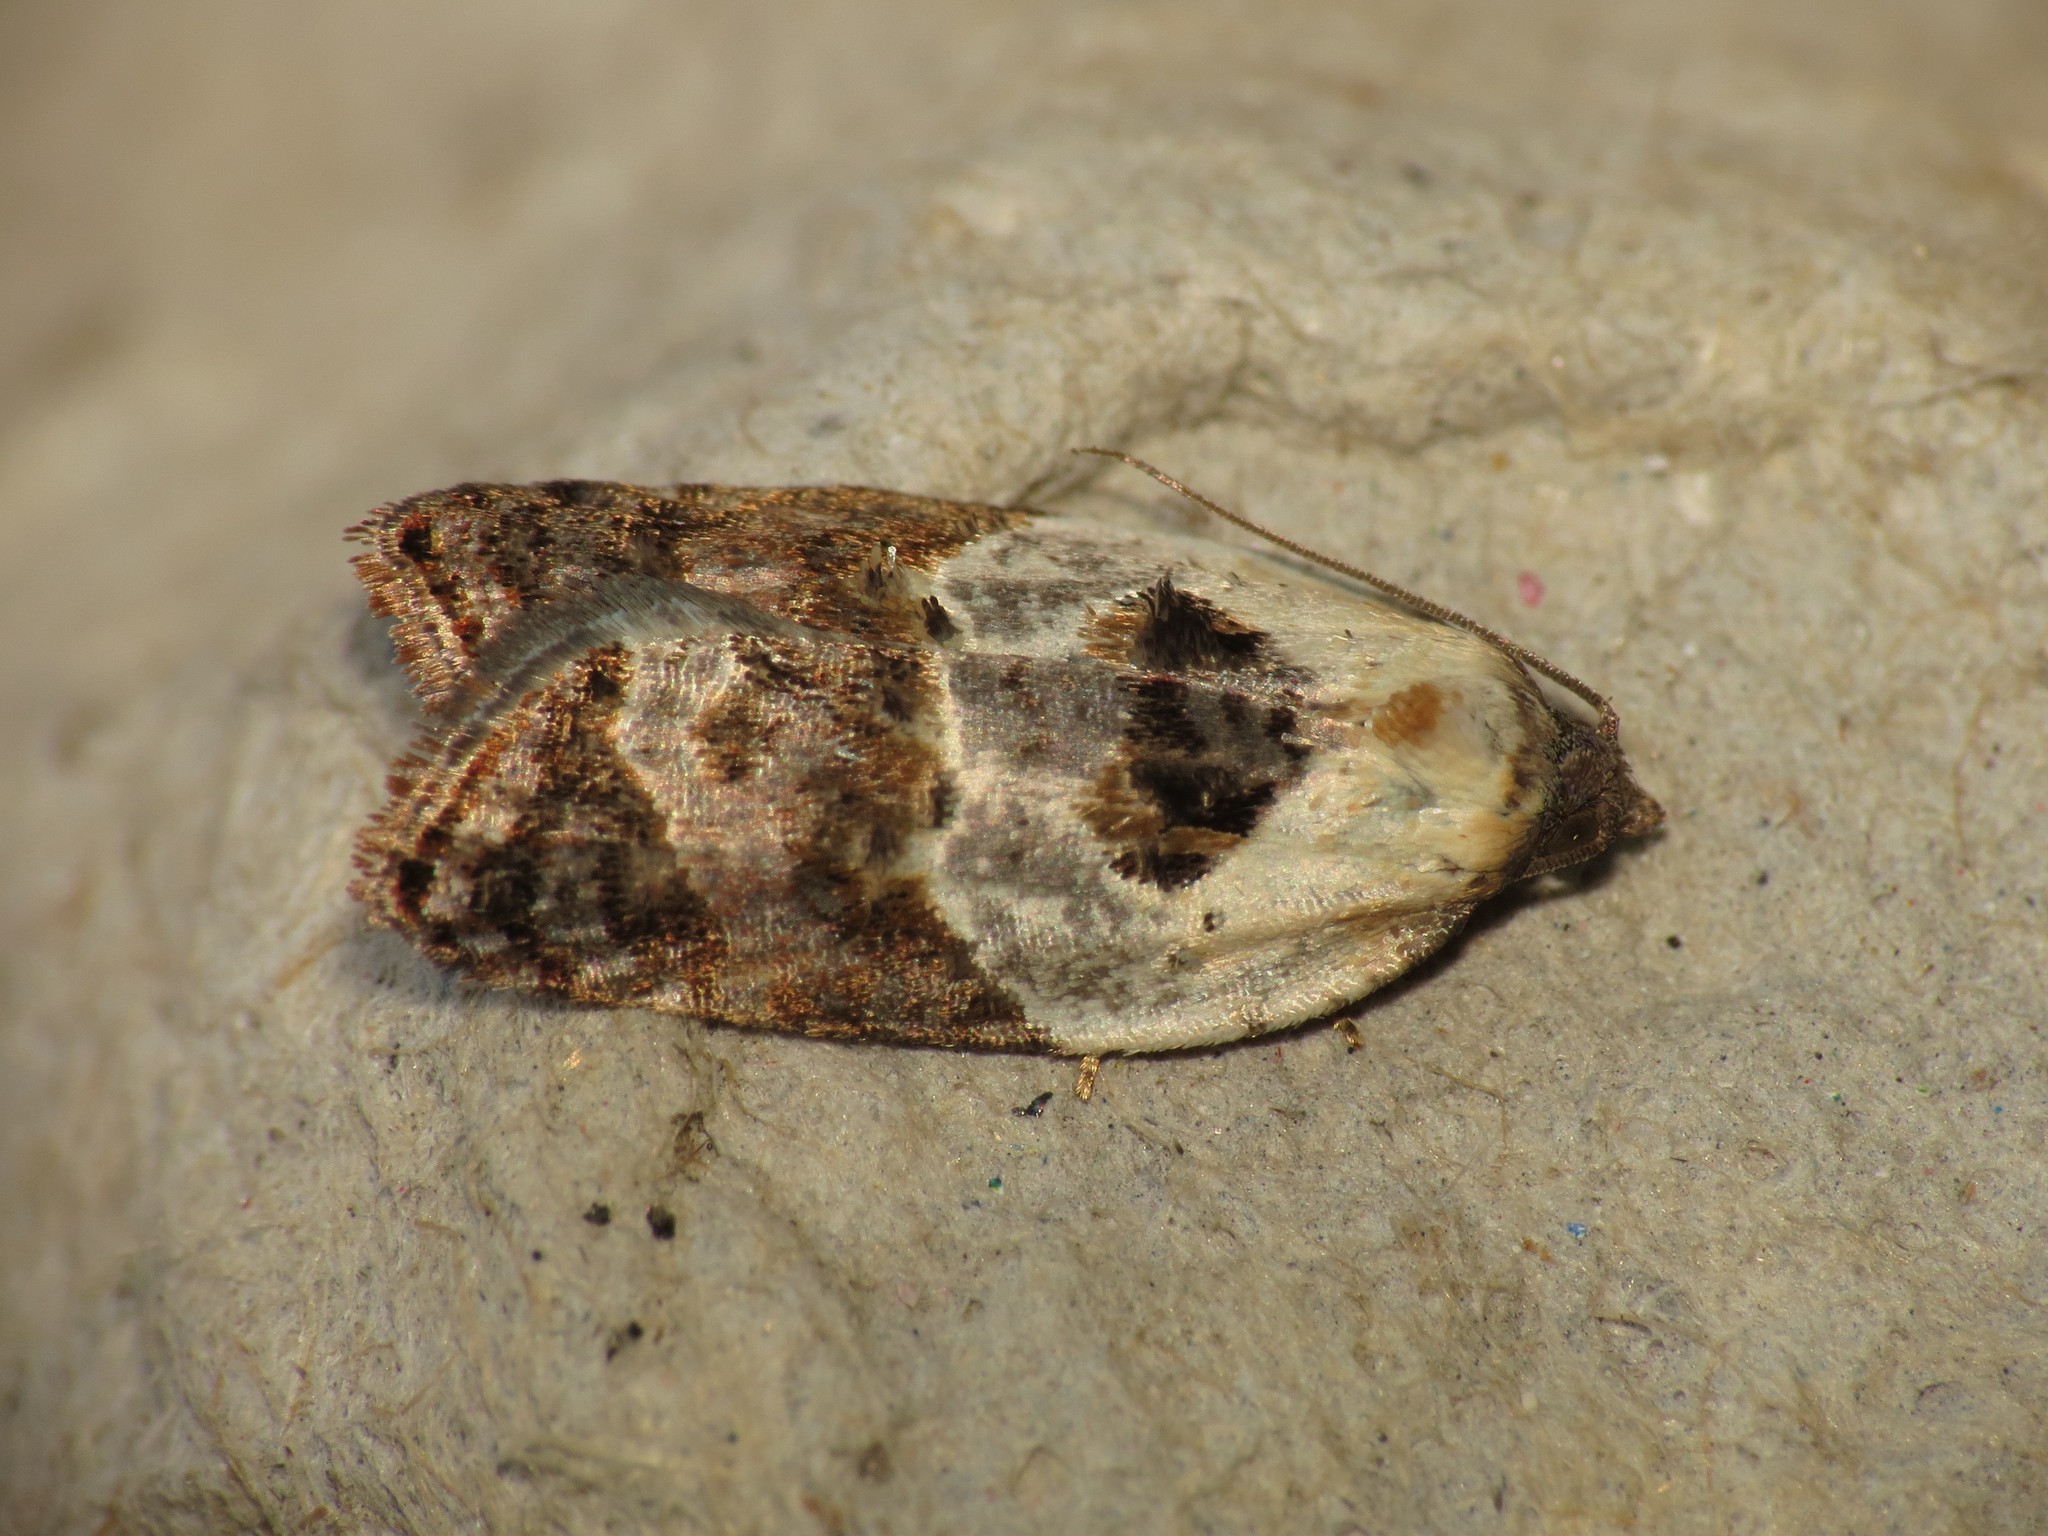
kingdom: Animalia
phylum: Arthropoda
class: Insecta
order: Lepidoptera
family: Tortricidae
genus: Acleris
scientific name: Acleris variegana
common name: Garden rose tortrix
